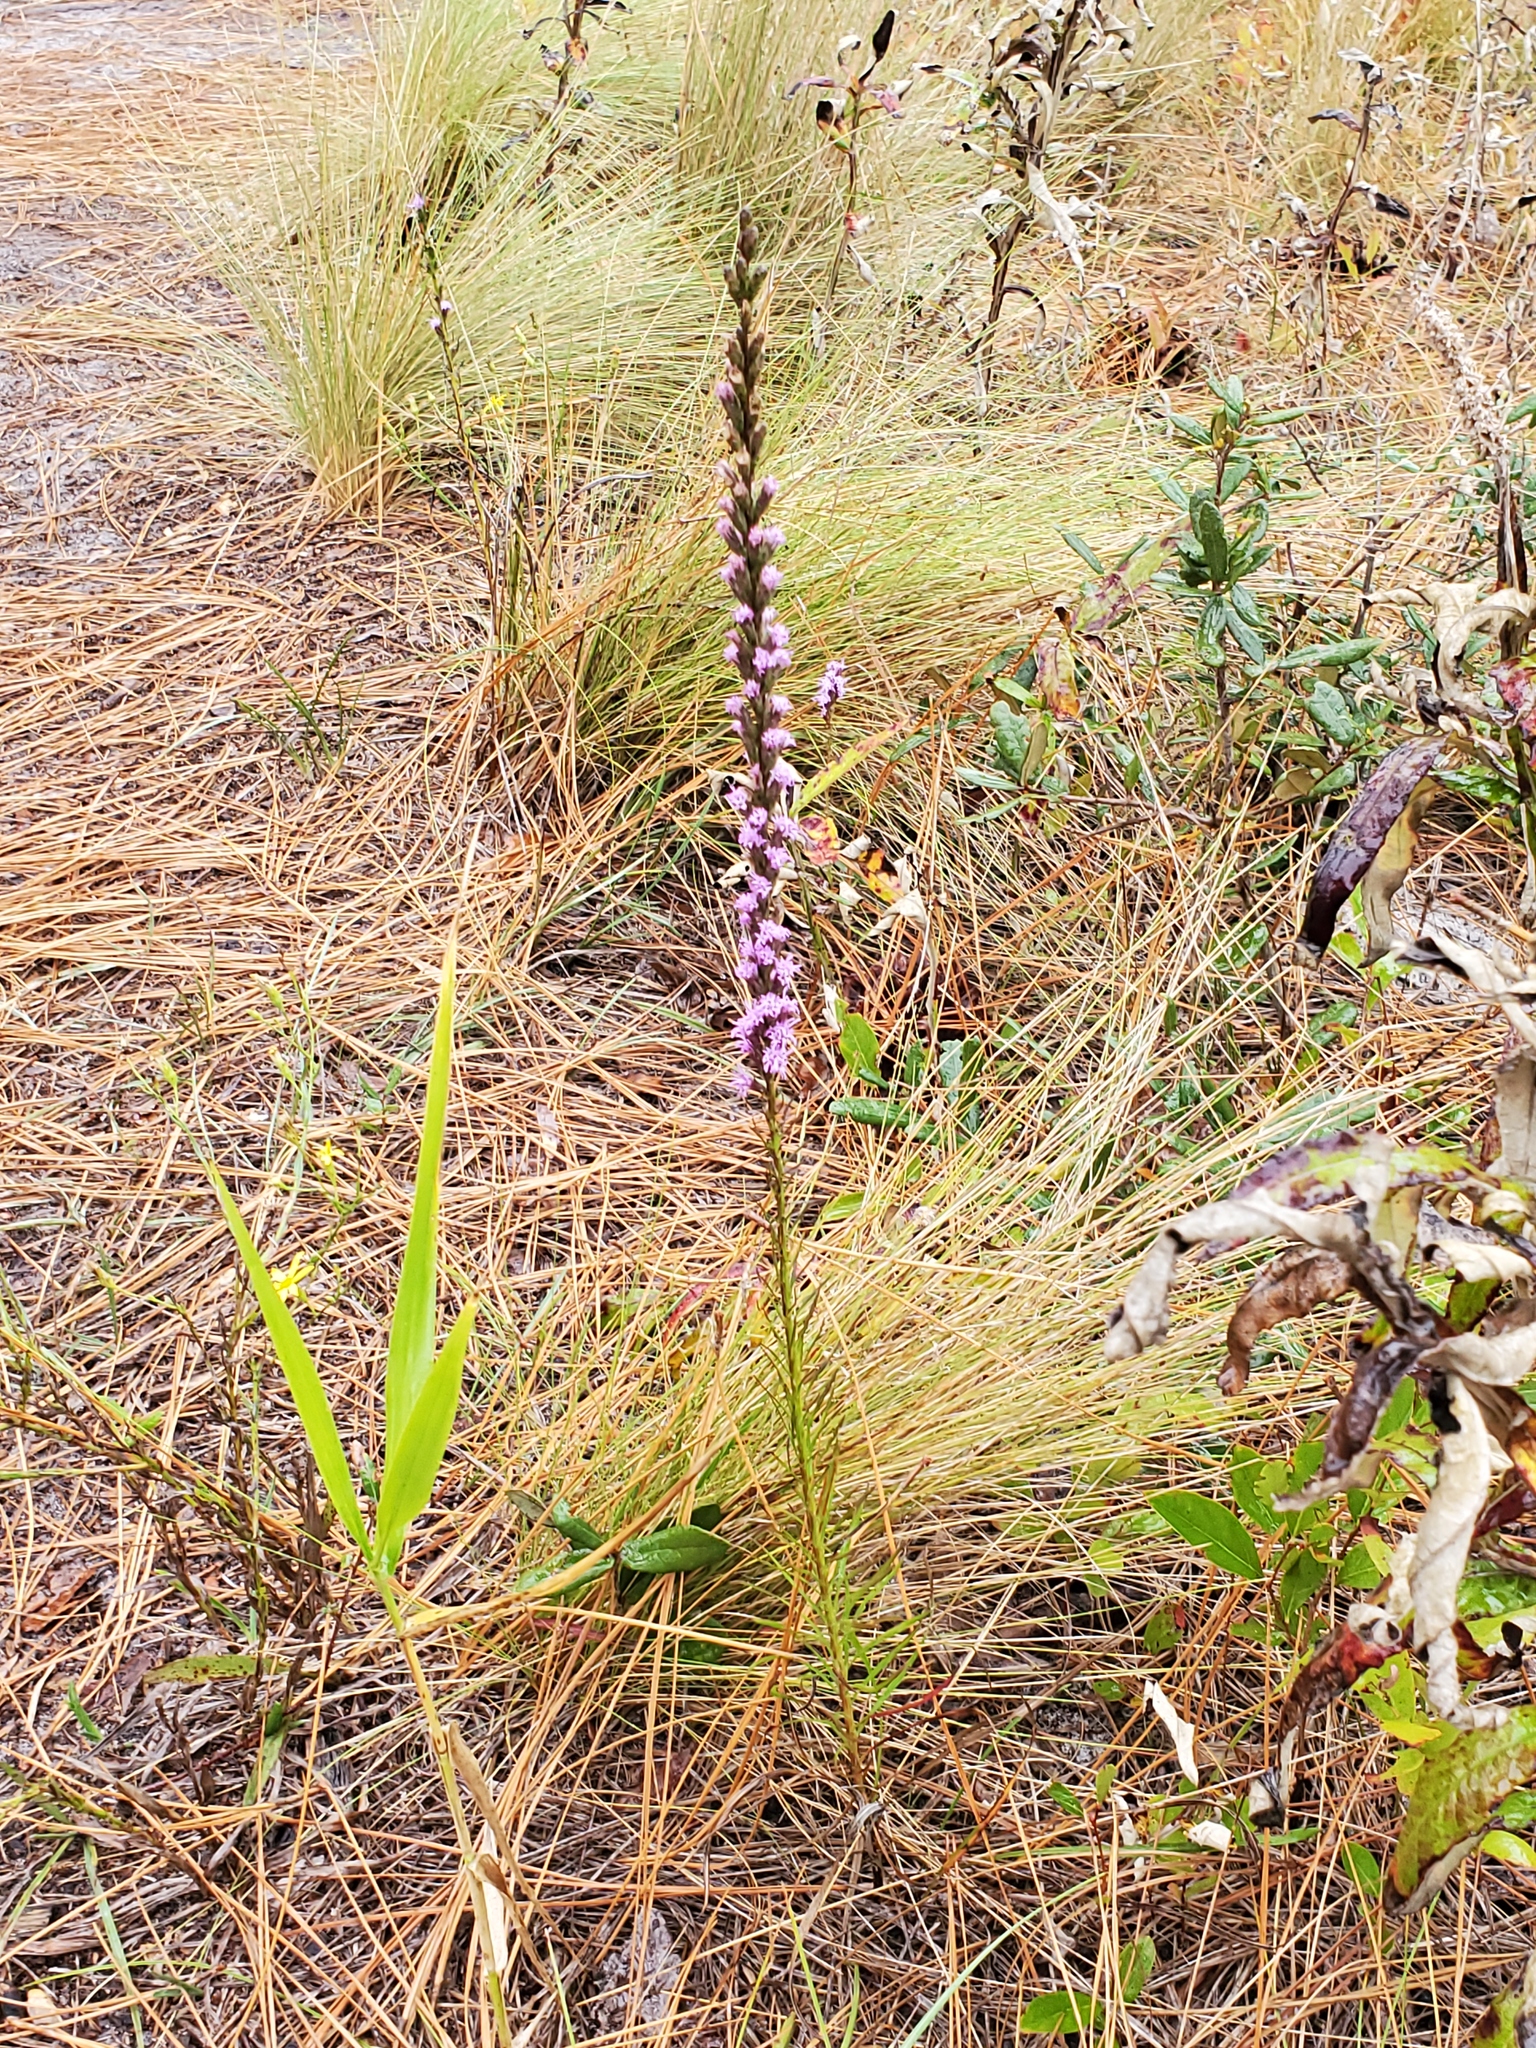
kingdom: Plantae
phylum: Tracheophyta
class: Magnoliopsida
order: Asterales
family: Asteraceae
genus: Liatris
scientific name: Liatris pilosa
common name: Grass-leaf gayfeather
